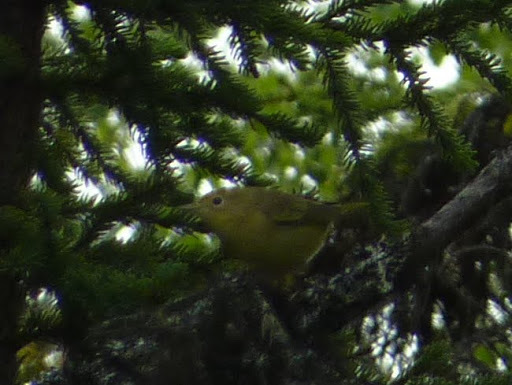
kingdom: Animalia
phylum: Chordata
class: Aves
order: Passeriformes
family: Parulidae
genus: Setophaga
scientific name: Setophaga petechia
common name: Yellow warbler
